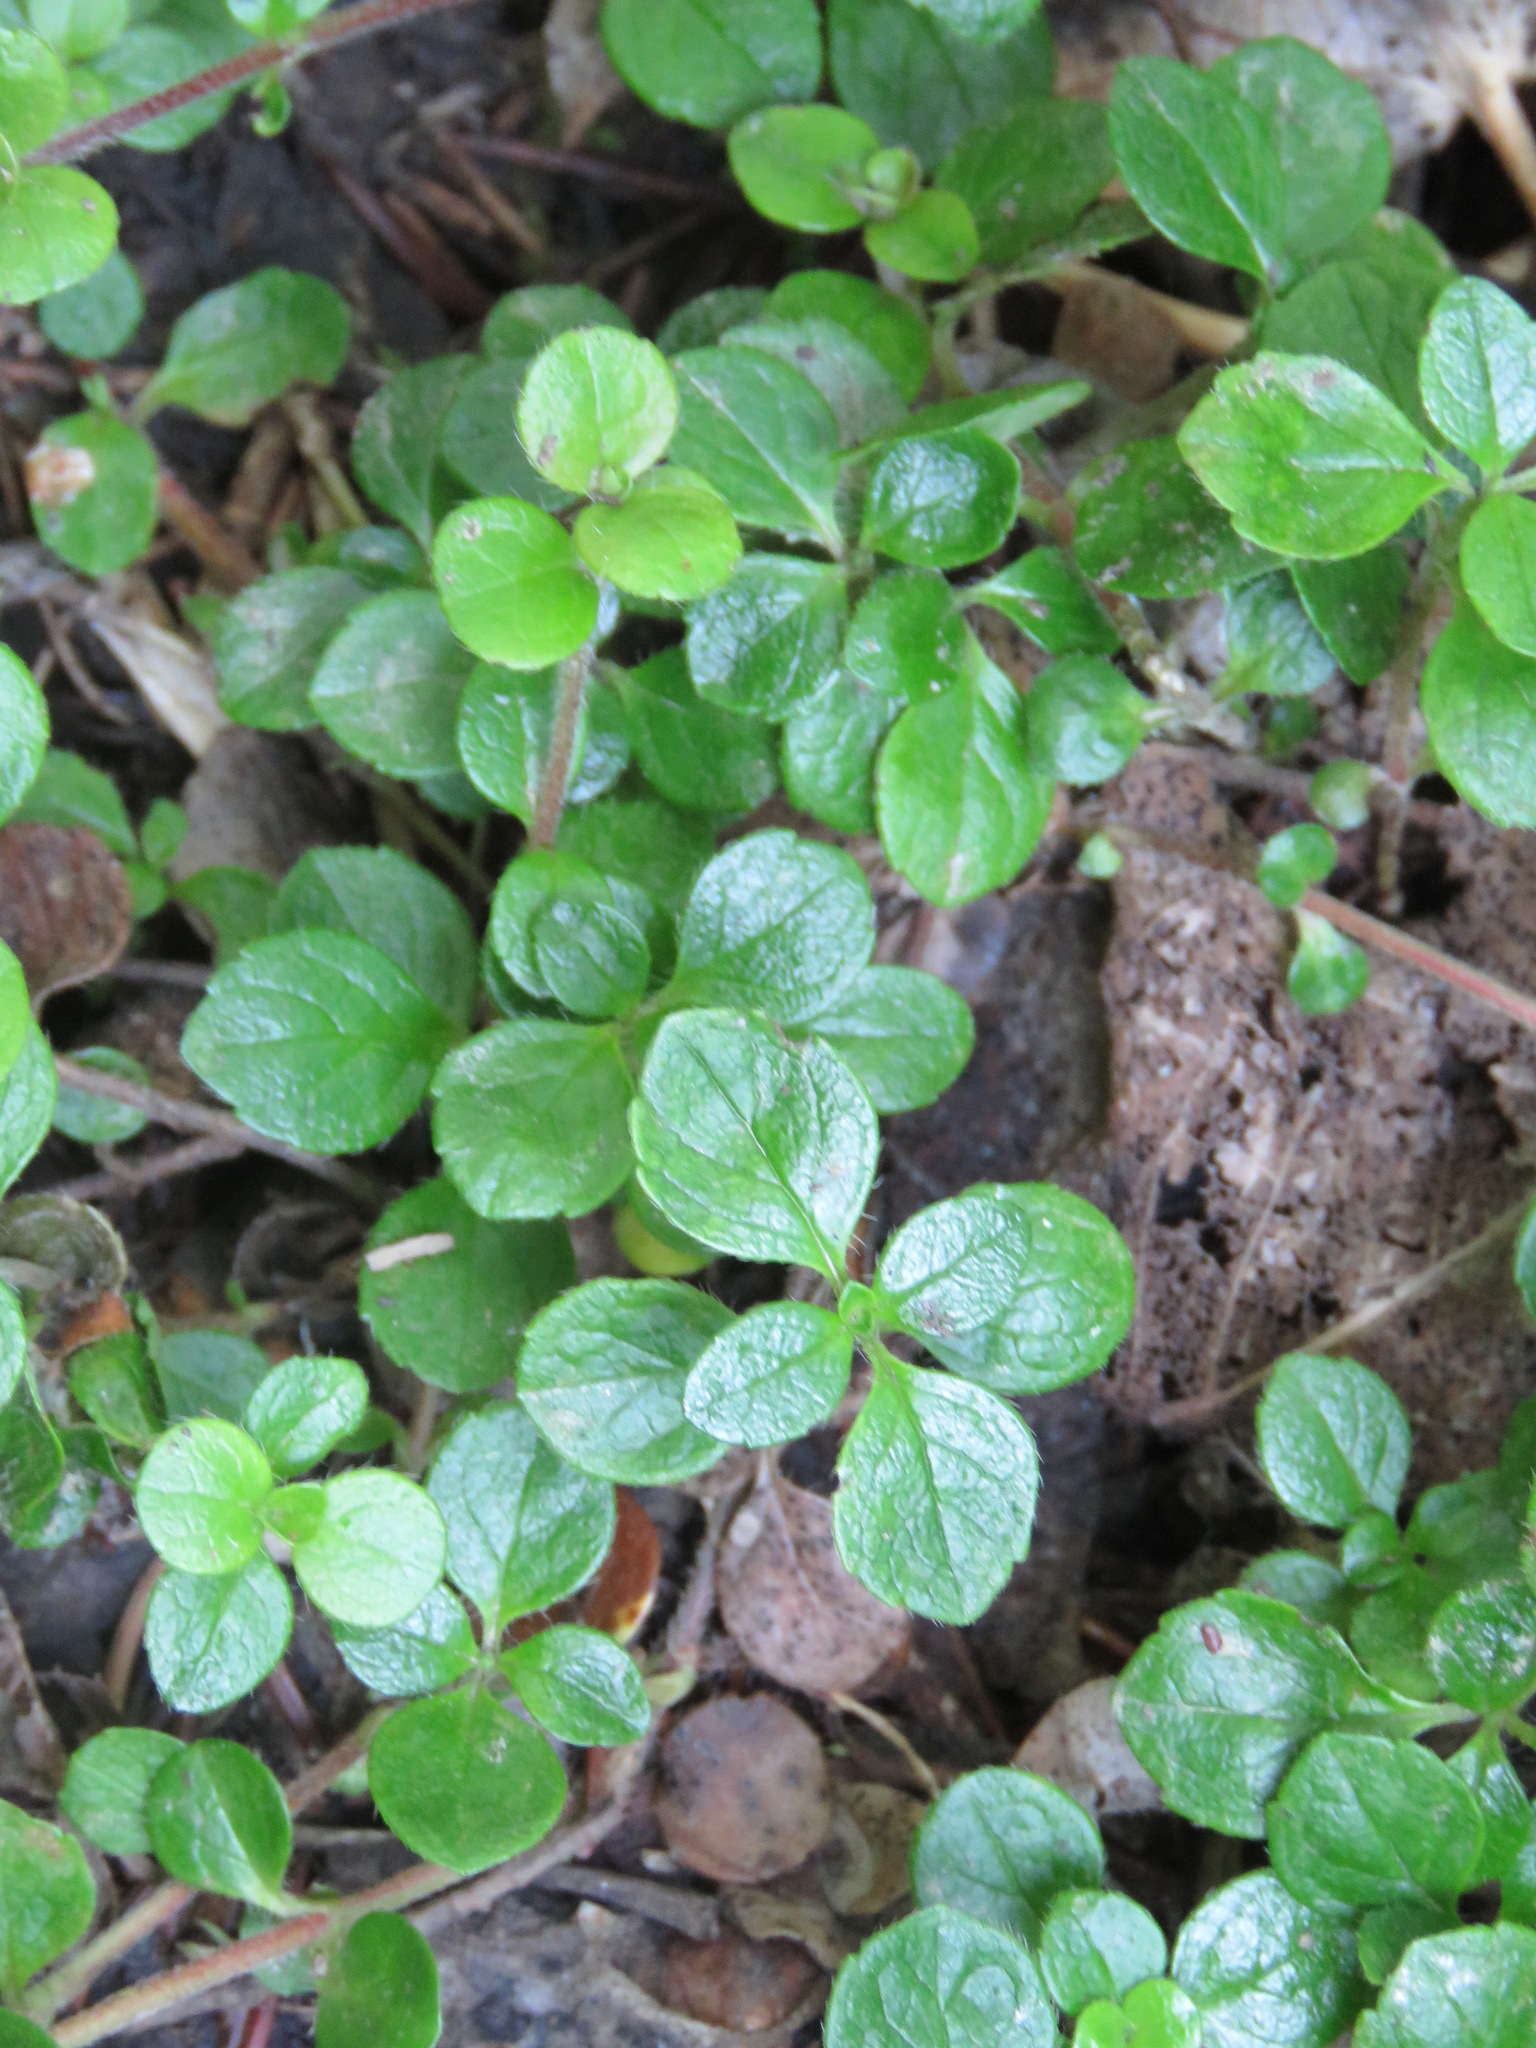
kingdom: Plantae
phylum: Tracheophyta
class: Magnoliopsida
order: Dipsacales
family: Caprifoliaceae
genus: Linnaea
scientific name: Linnaea borealis
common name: Twinflower
